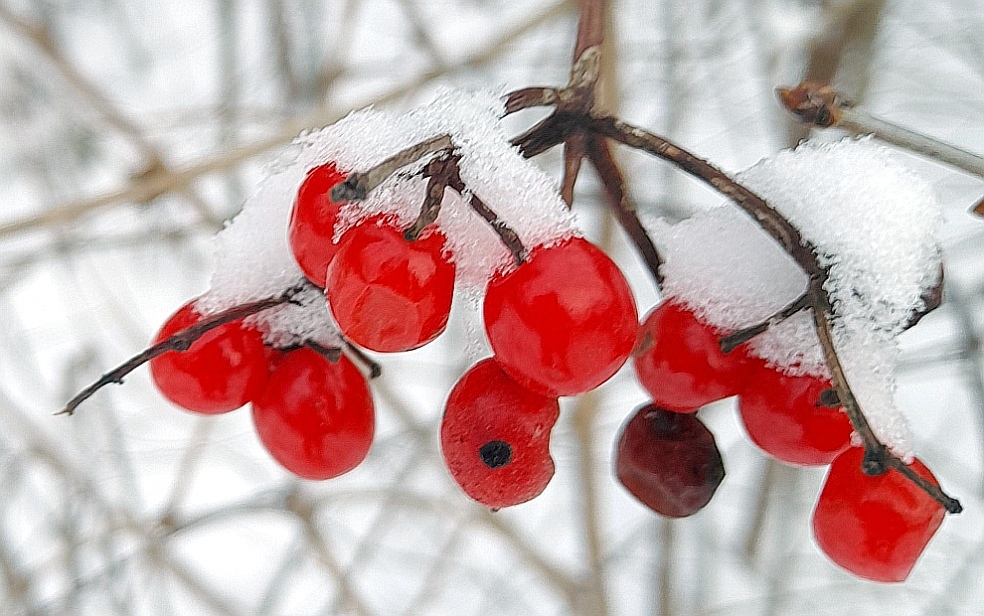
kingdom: Plantae
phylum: Tracheophyta
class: Magnoliopsida
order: Dipsacales
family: Viburnaceae
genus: Viburnum
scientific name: Viburnum opulus
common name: Guelder-rose
